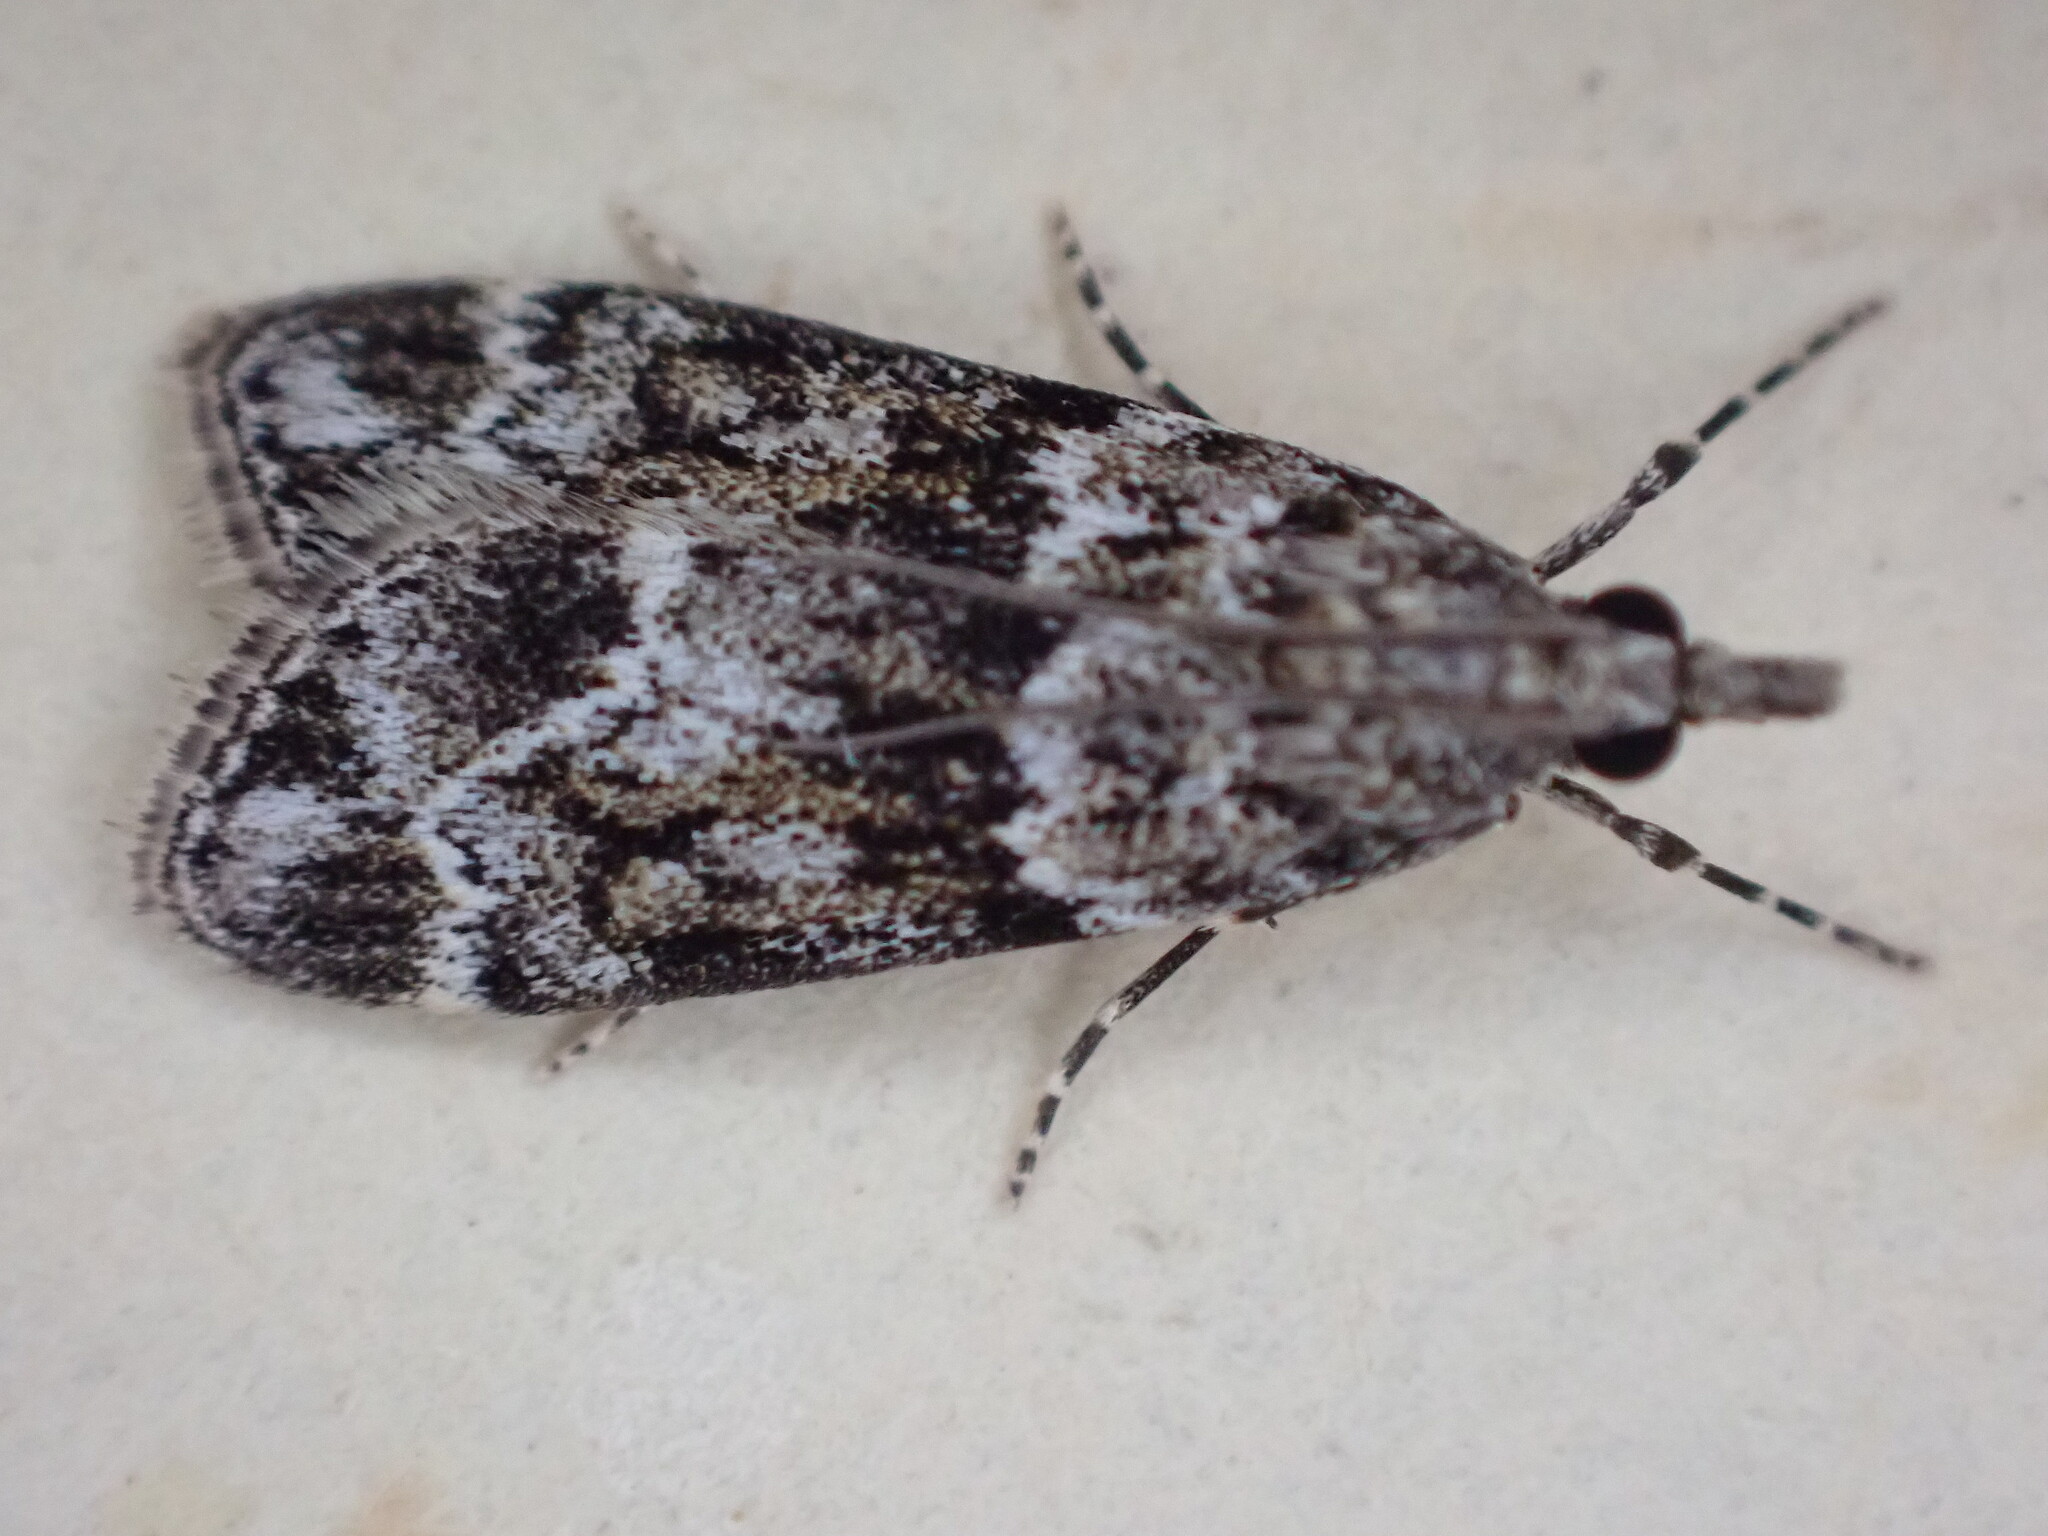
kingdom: Animalia
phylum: Arthropoda
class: Insecta
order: Lepidoptera
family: Crambidae
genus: Eudonia
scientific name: Eudonia mercurella
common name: Small grey
